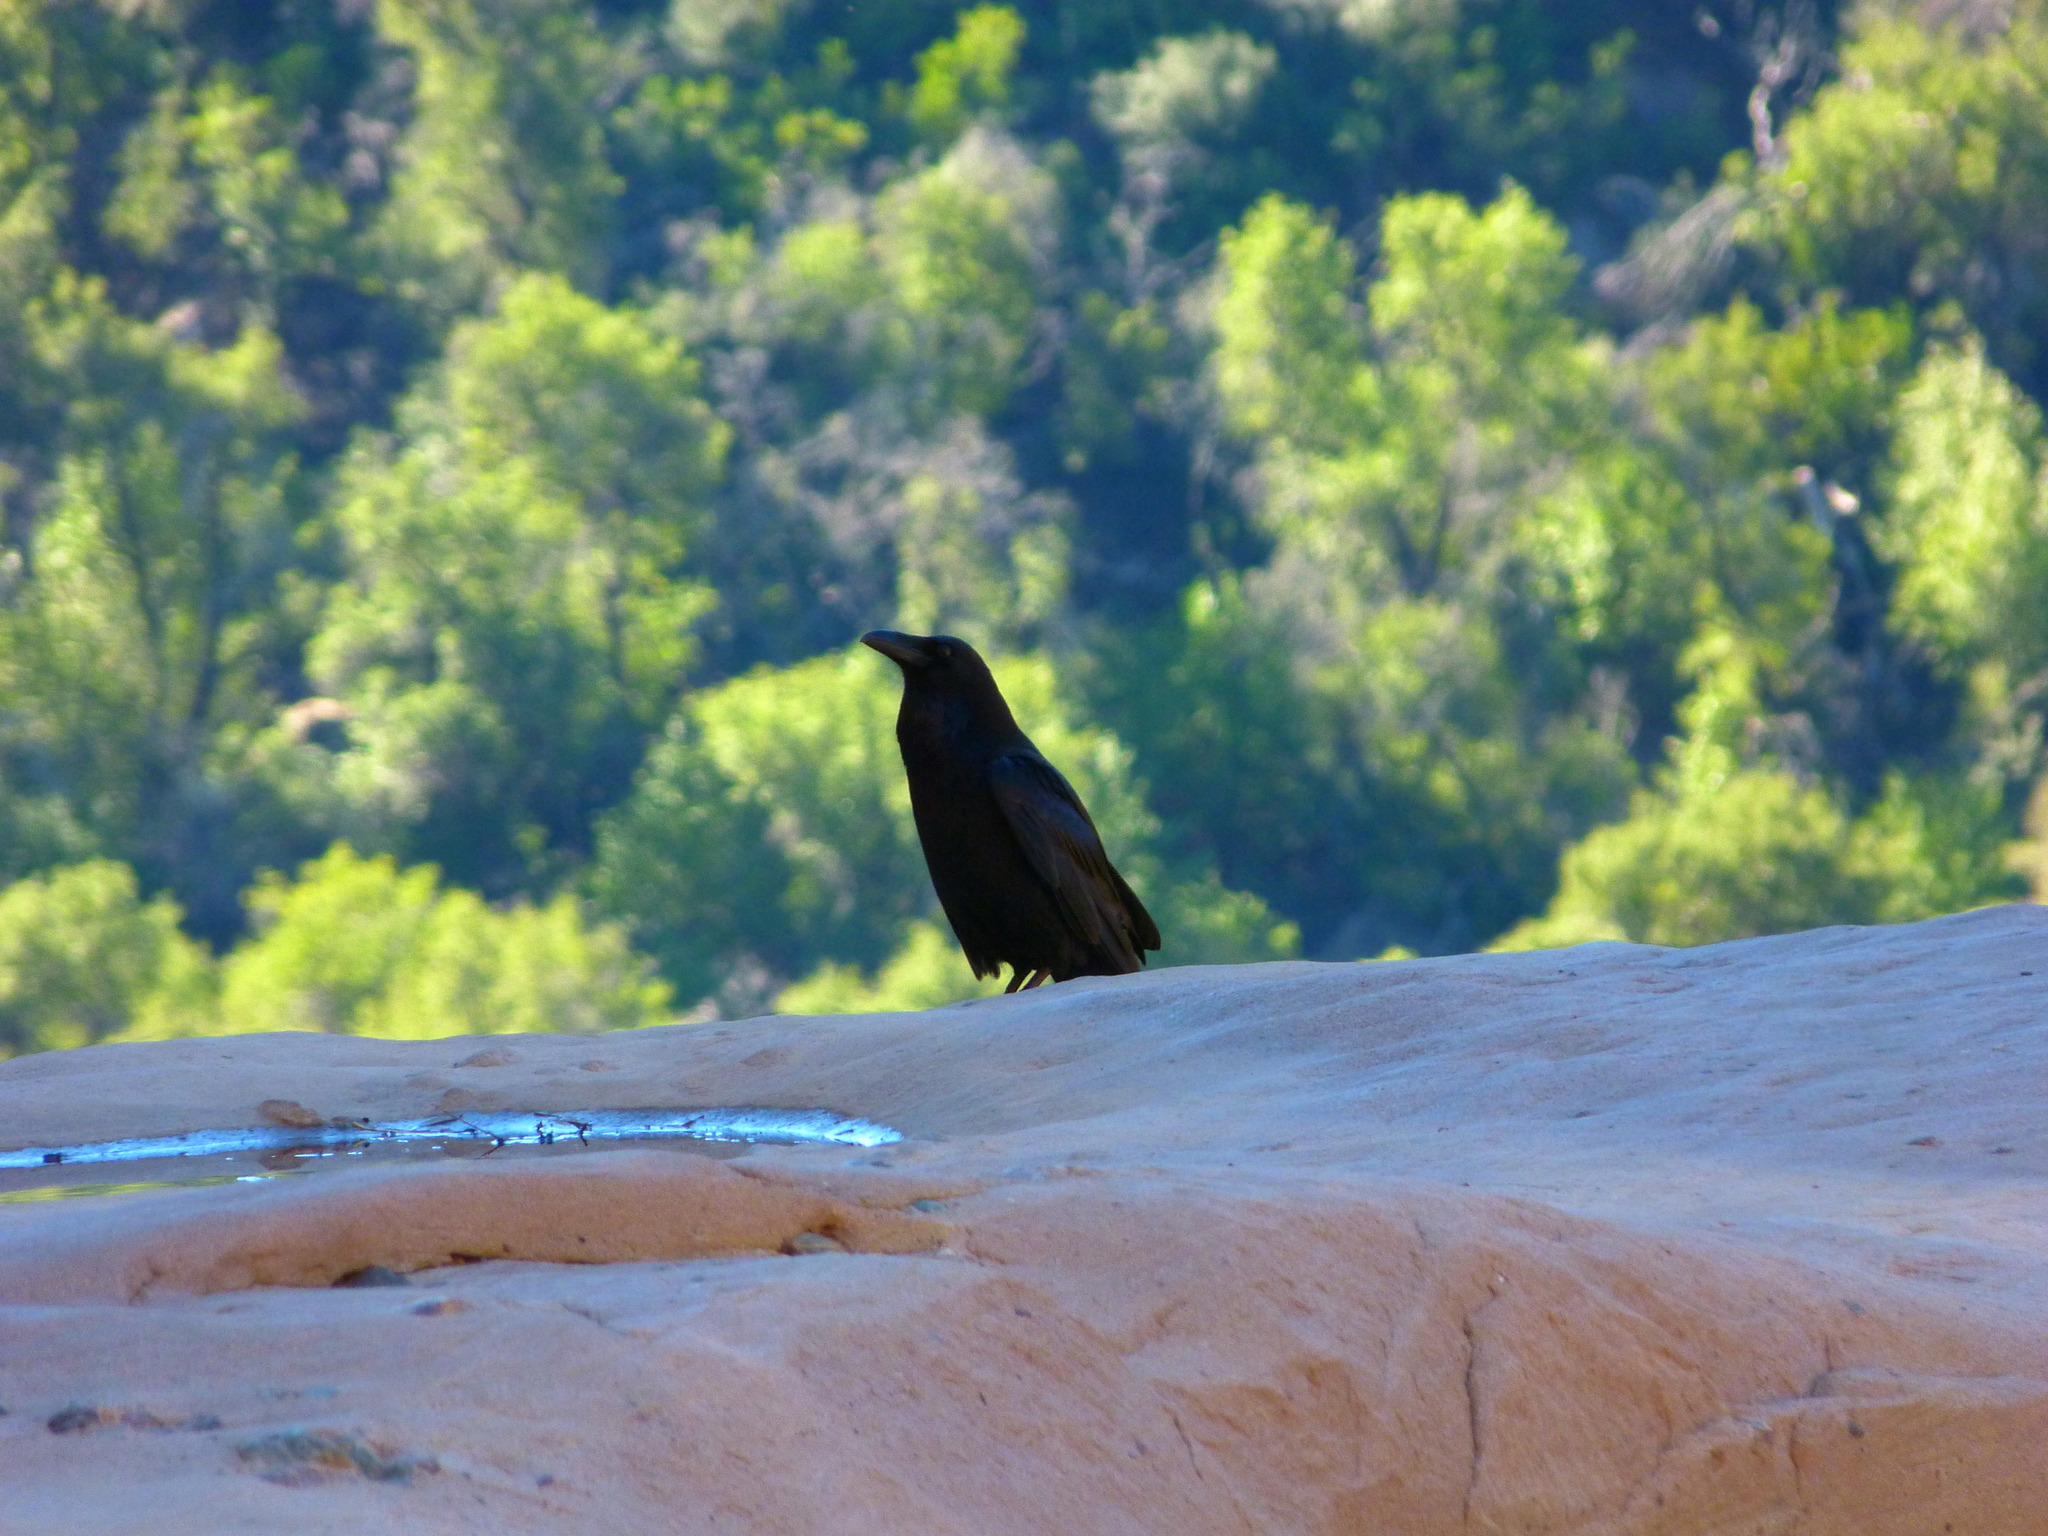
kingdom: Animalia
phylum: Chordata
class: Aves
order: Passeriformes
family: Corvidae
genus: Corvus
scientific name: Corvus corax
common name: Common raven
